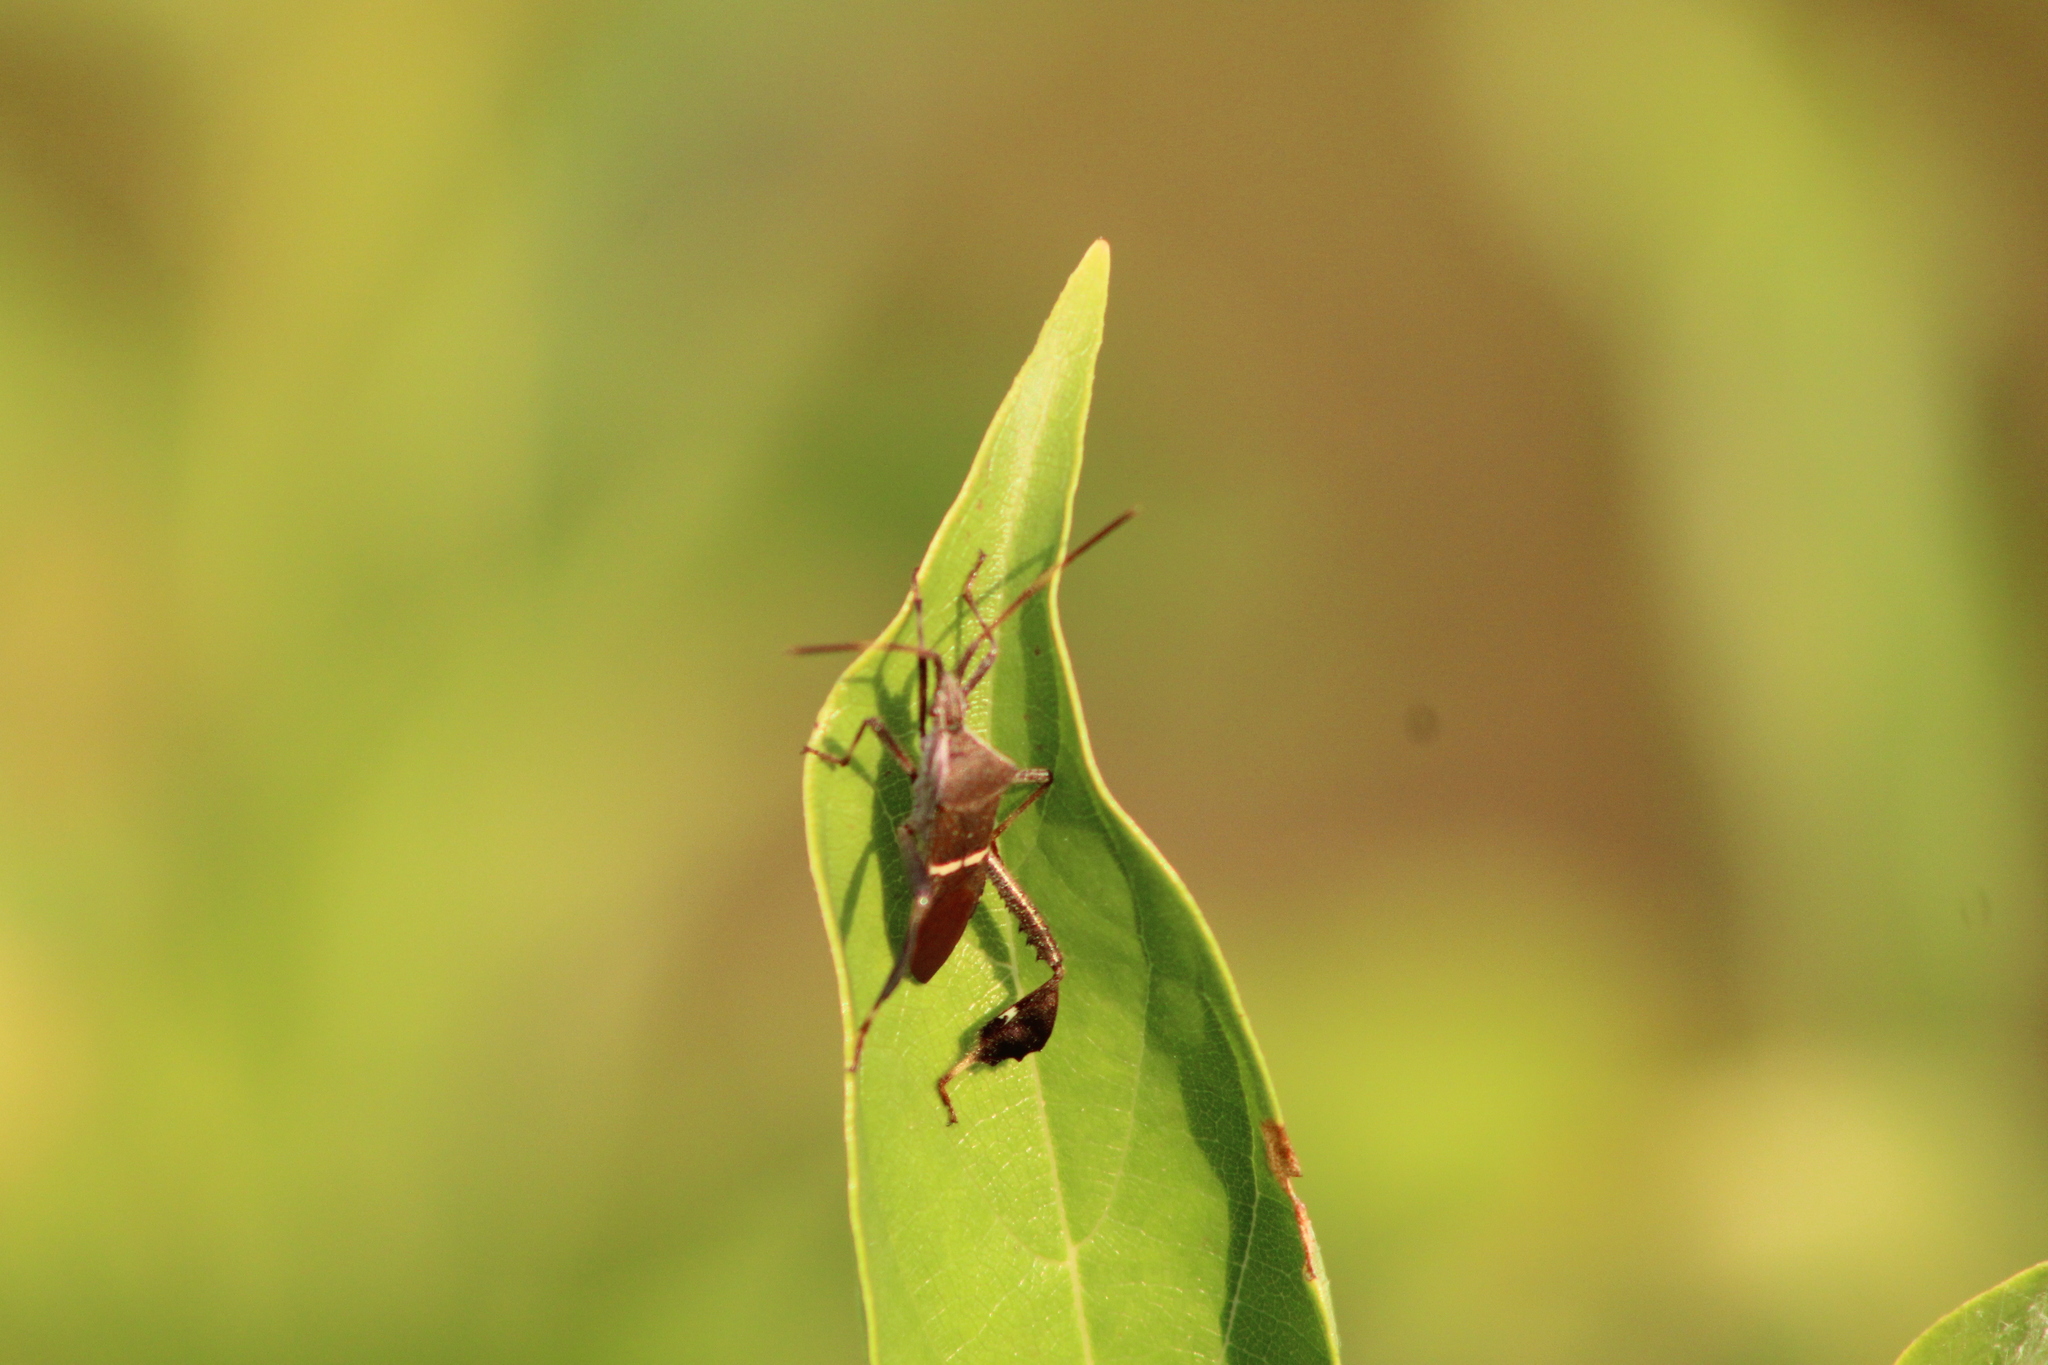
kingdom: Animalia
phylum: Arthropoda
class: Insecta
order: Hemiptera
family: Coreidae
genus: Leptoglossus
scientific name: Leptoglossus phyllopus
